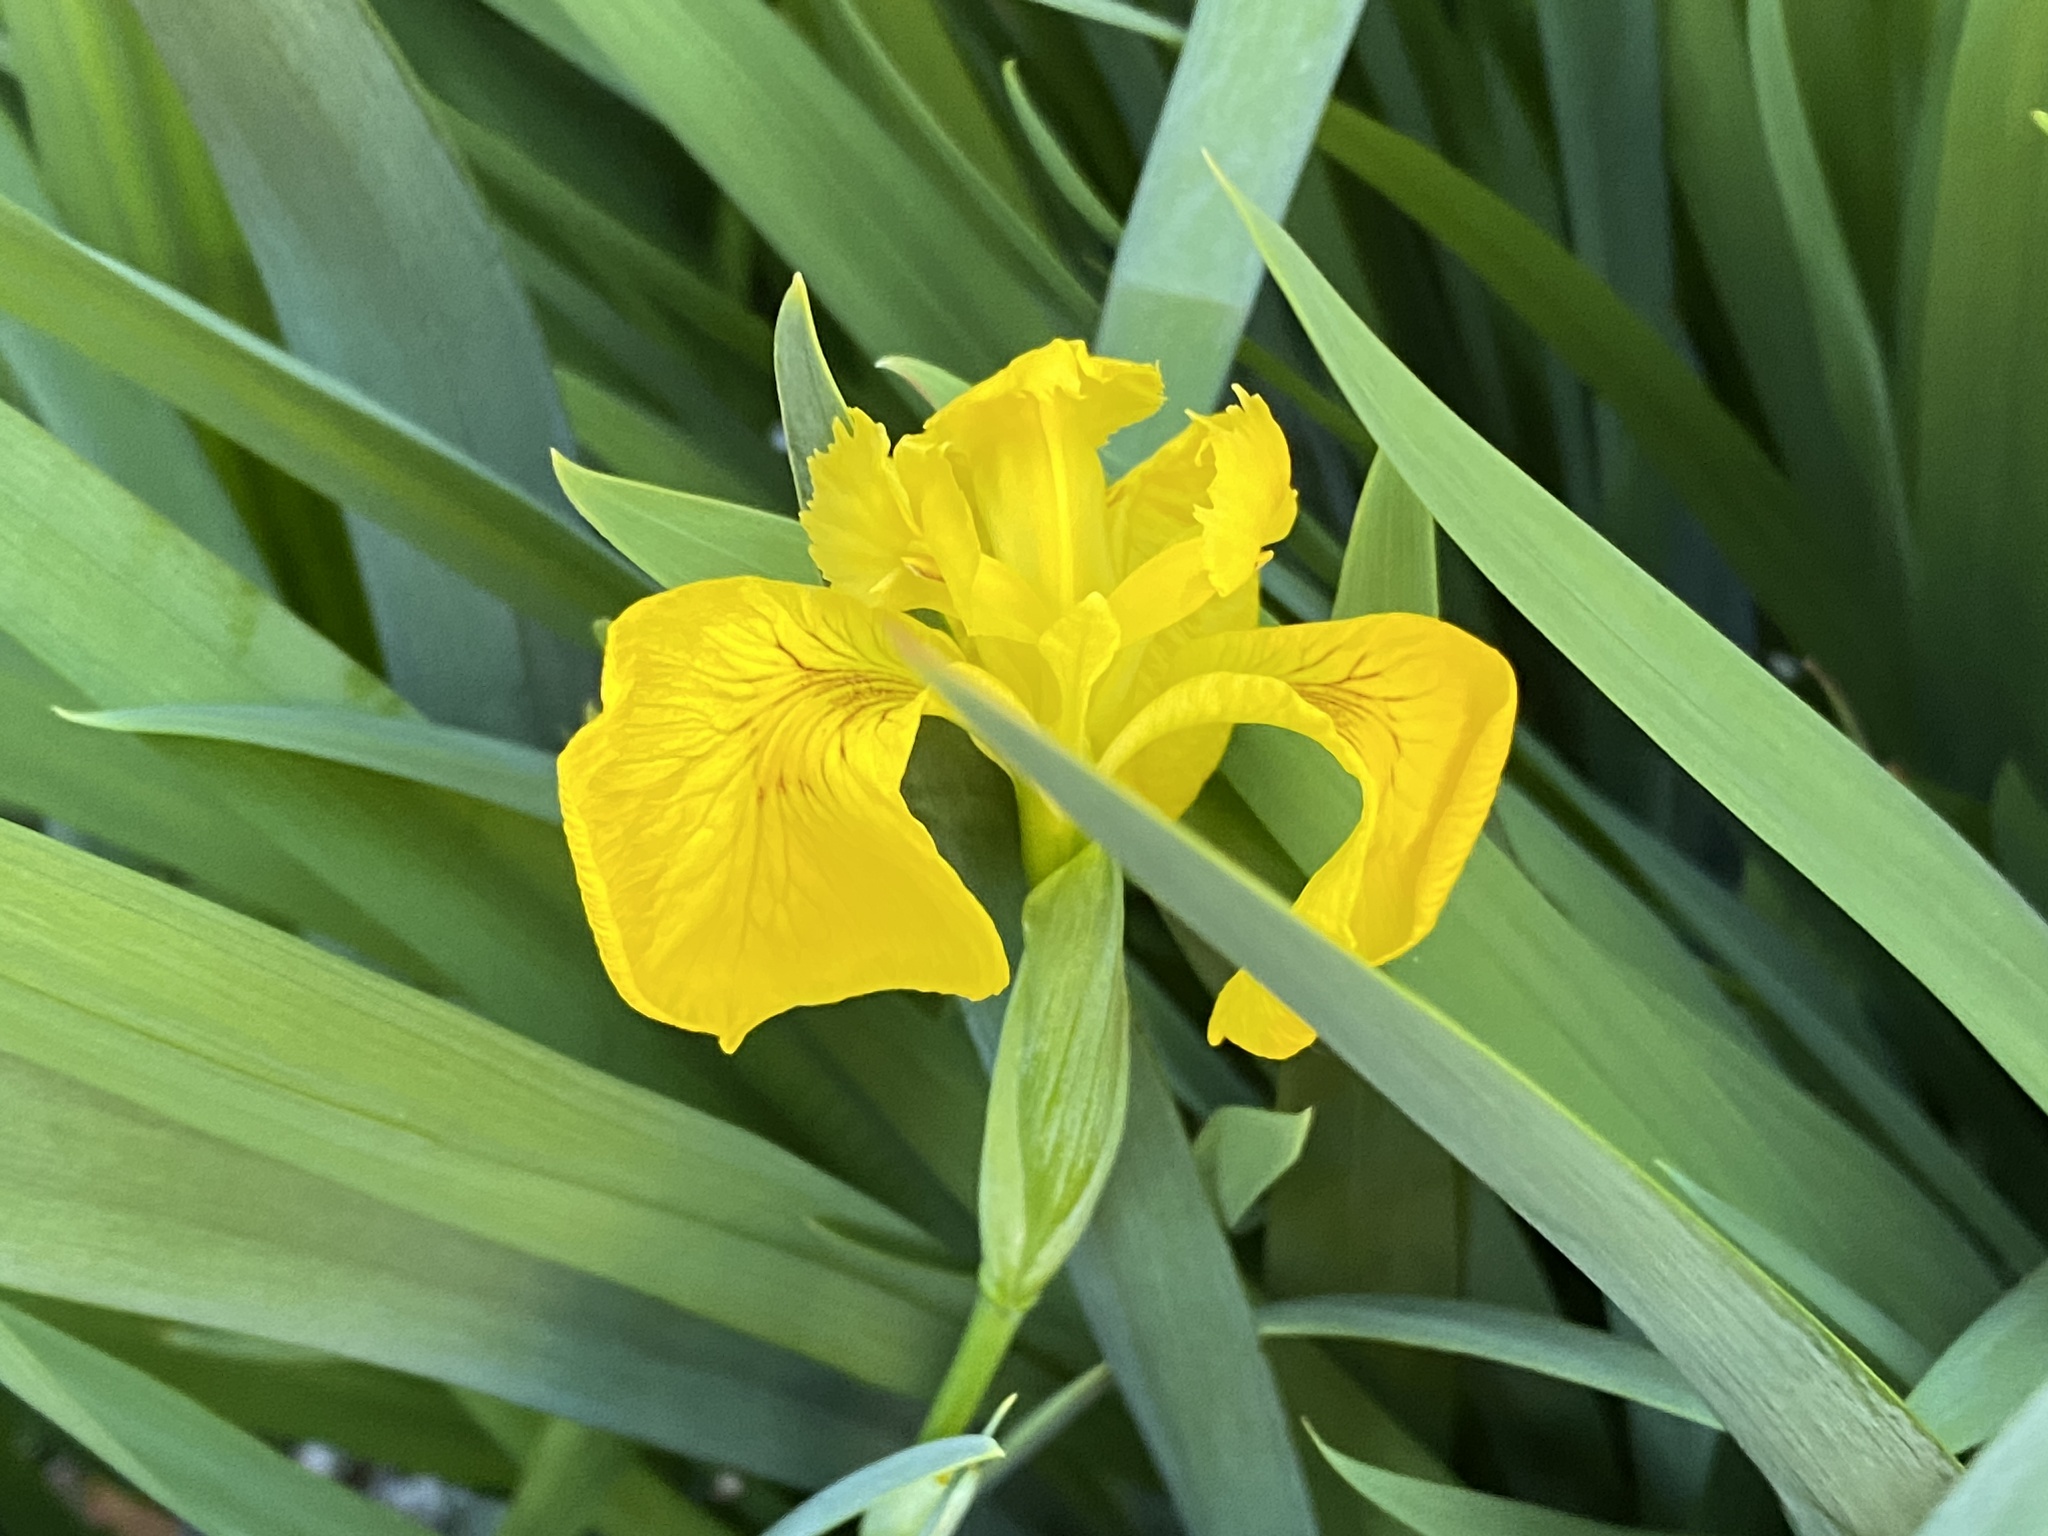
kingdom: Plantae
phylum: Tracheophyta
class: Liliopsida
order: Asparagales
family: Iridaceae
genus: Iris
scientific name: Iris pseudacorus
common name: Yellow flag
